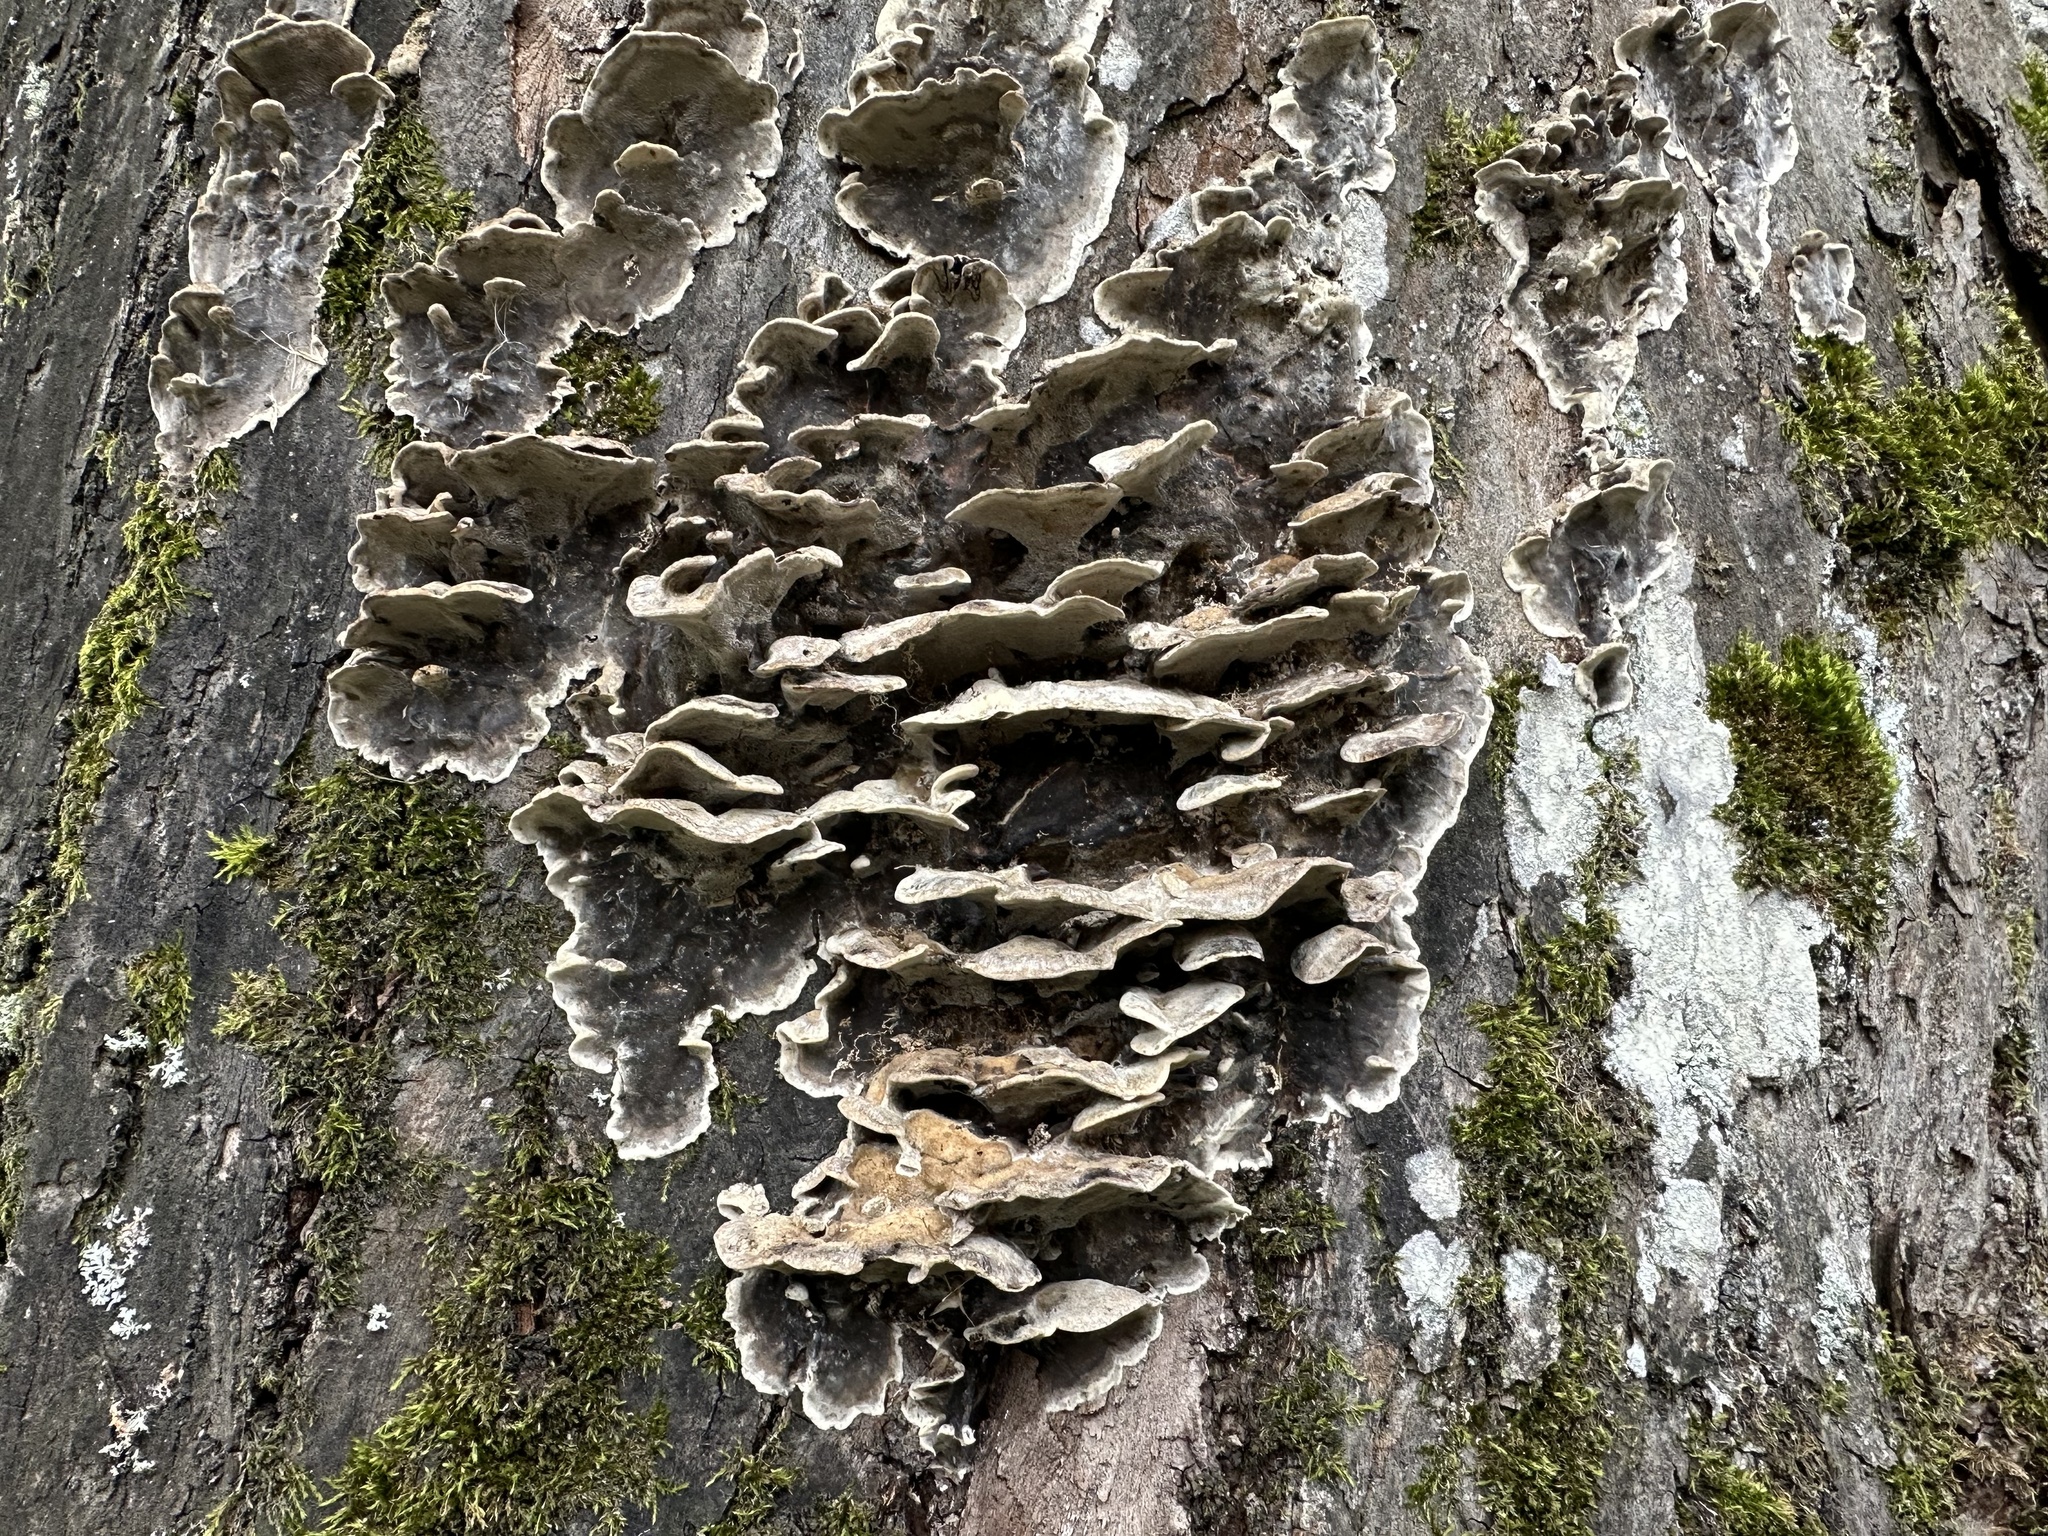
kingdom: Fungi
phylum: Basidiomycota
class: Agaricomycetes
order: Polyporales
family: Phanerochaetaceae
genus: Bjerkandera
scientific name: Bjerkandera adusta
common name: Smoky bracket
